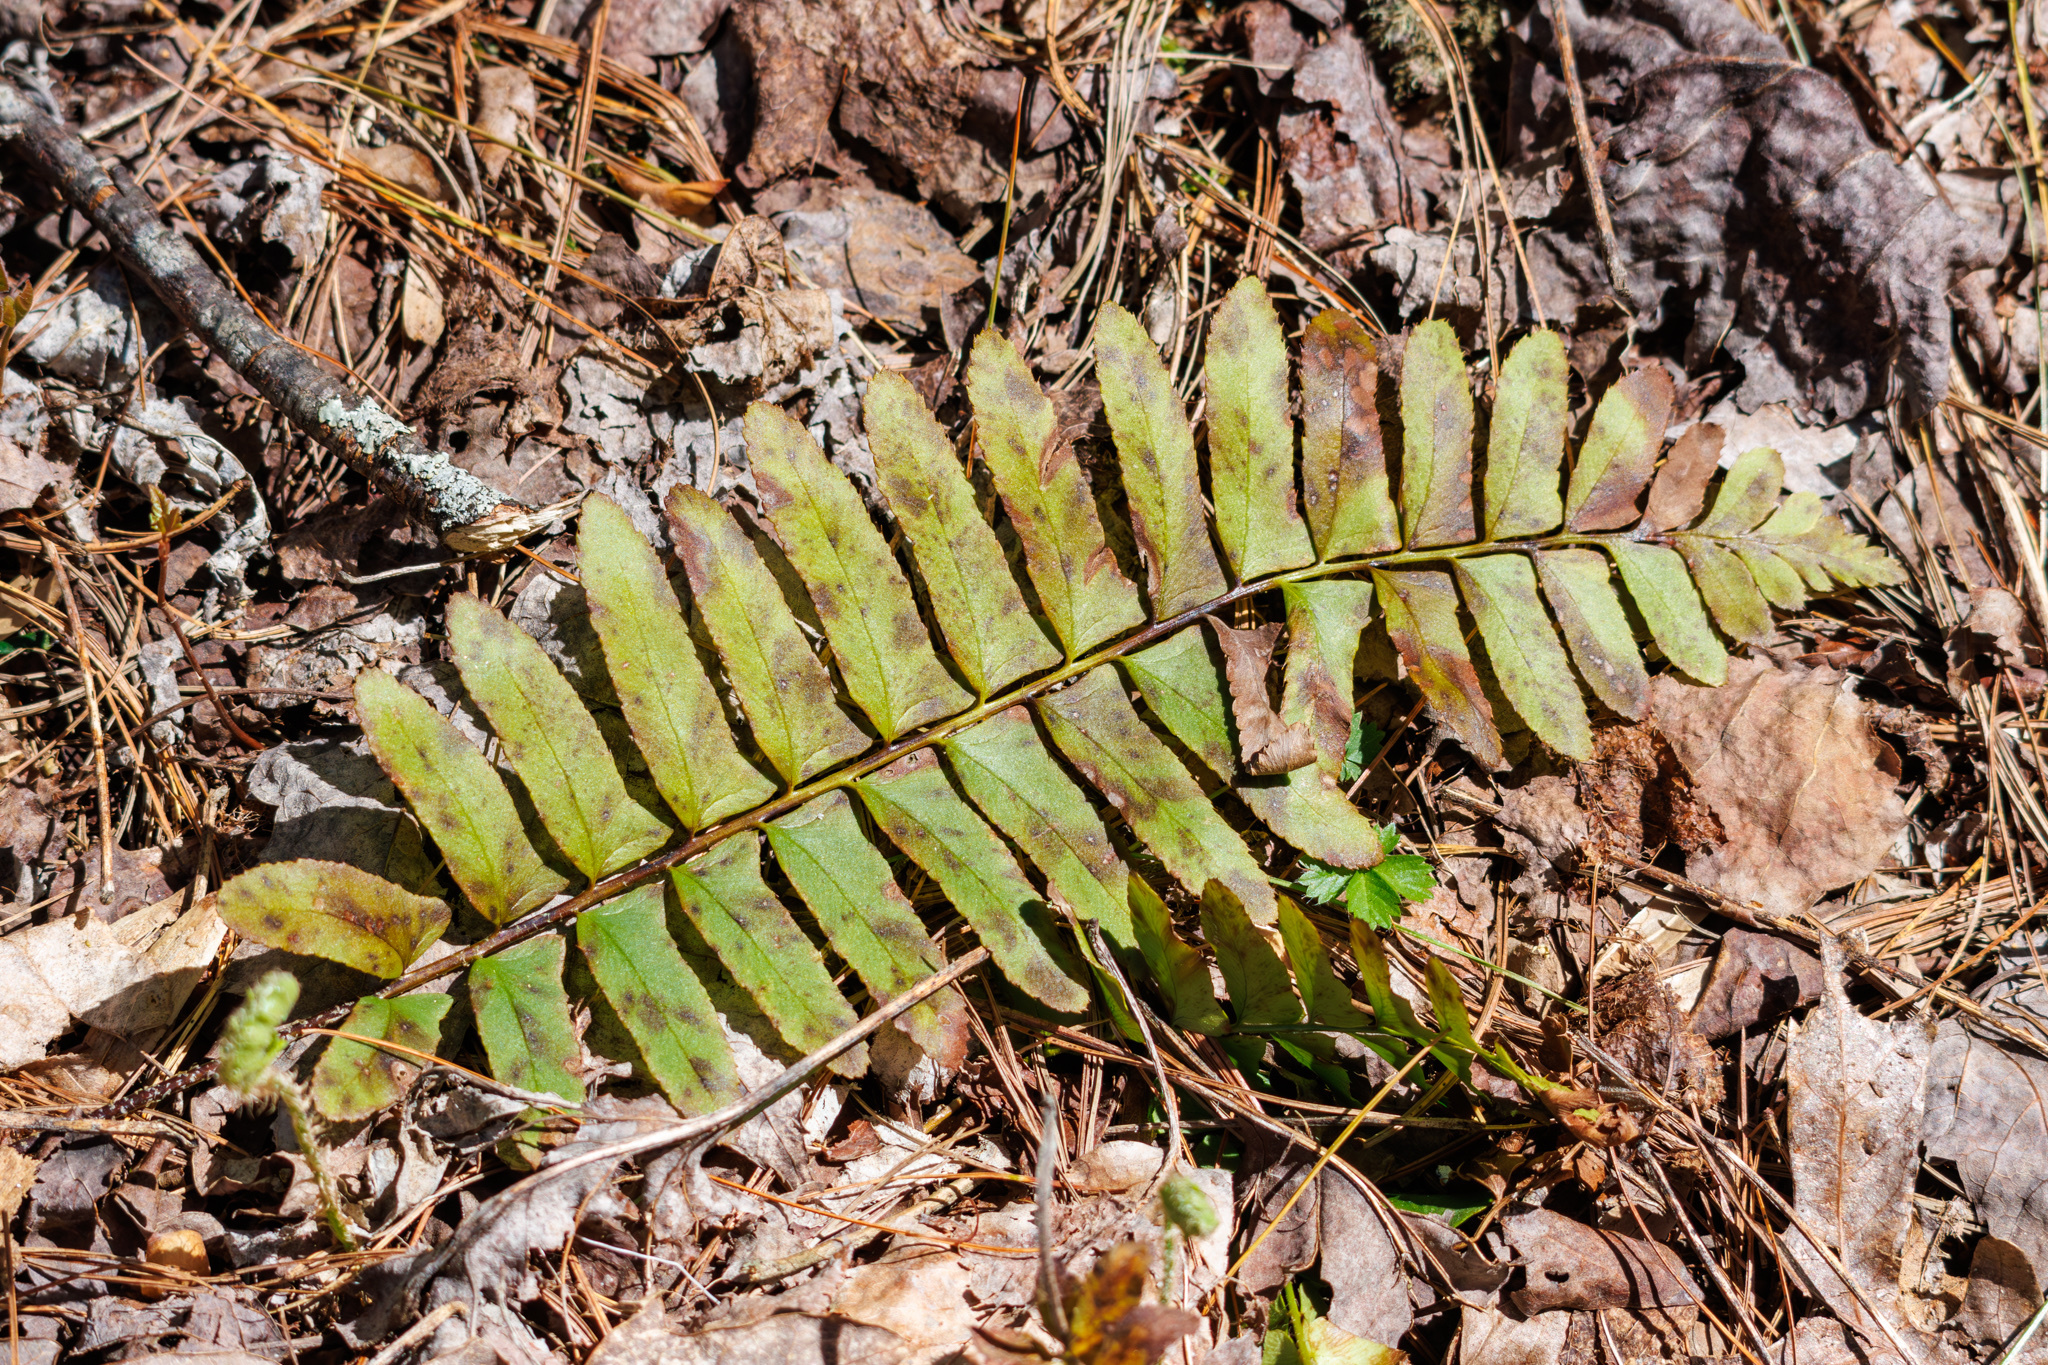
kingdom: Plantae
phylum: Tracheophyta
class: Polypodiopsida
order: Polypodiales
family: Dryopteridaceae
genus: Polystichum
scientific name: Polystichum acrostichoides
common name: Christmas fern
